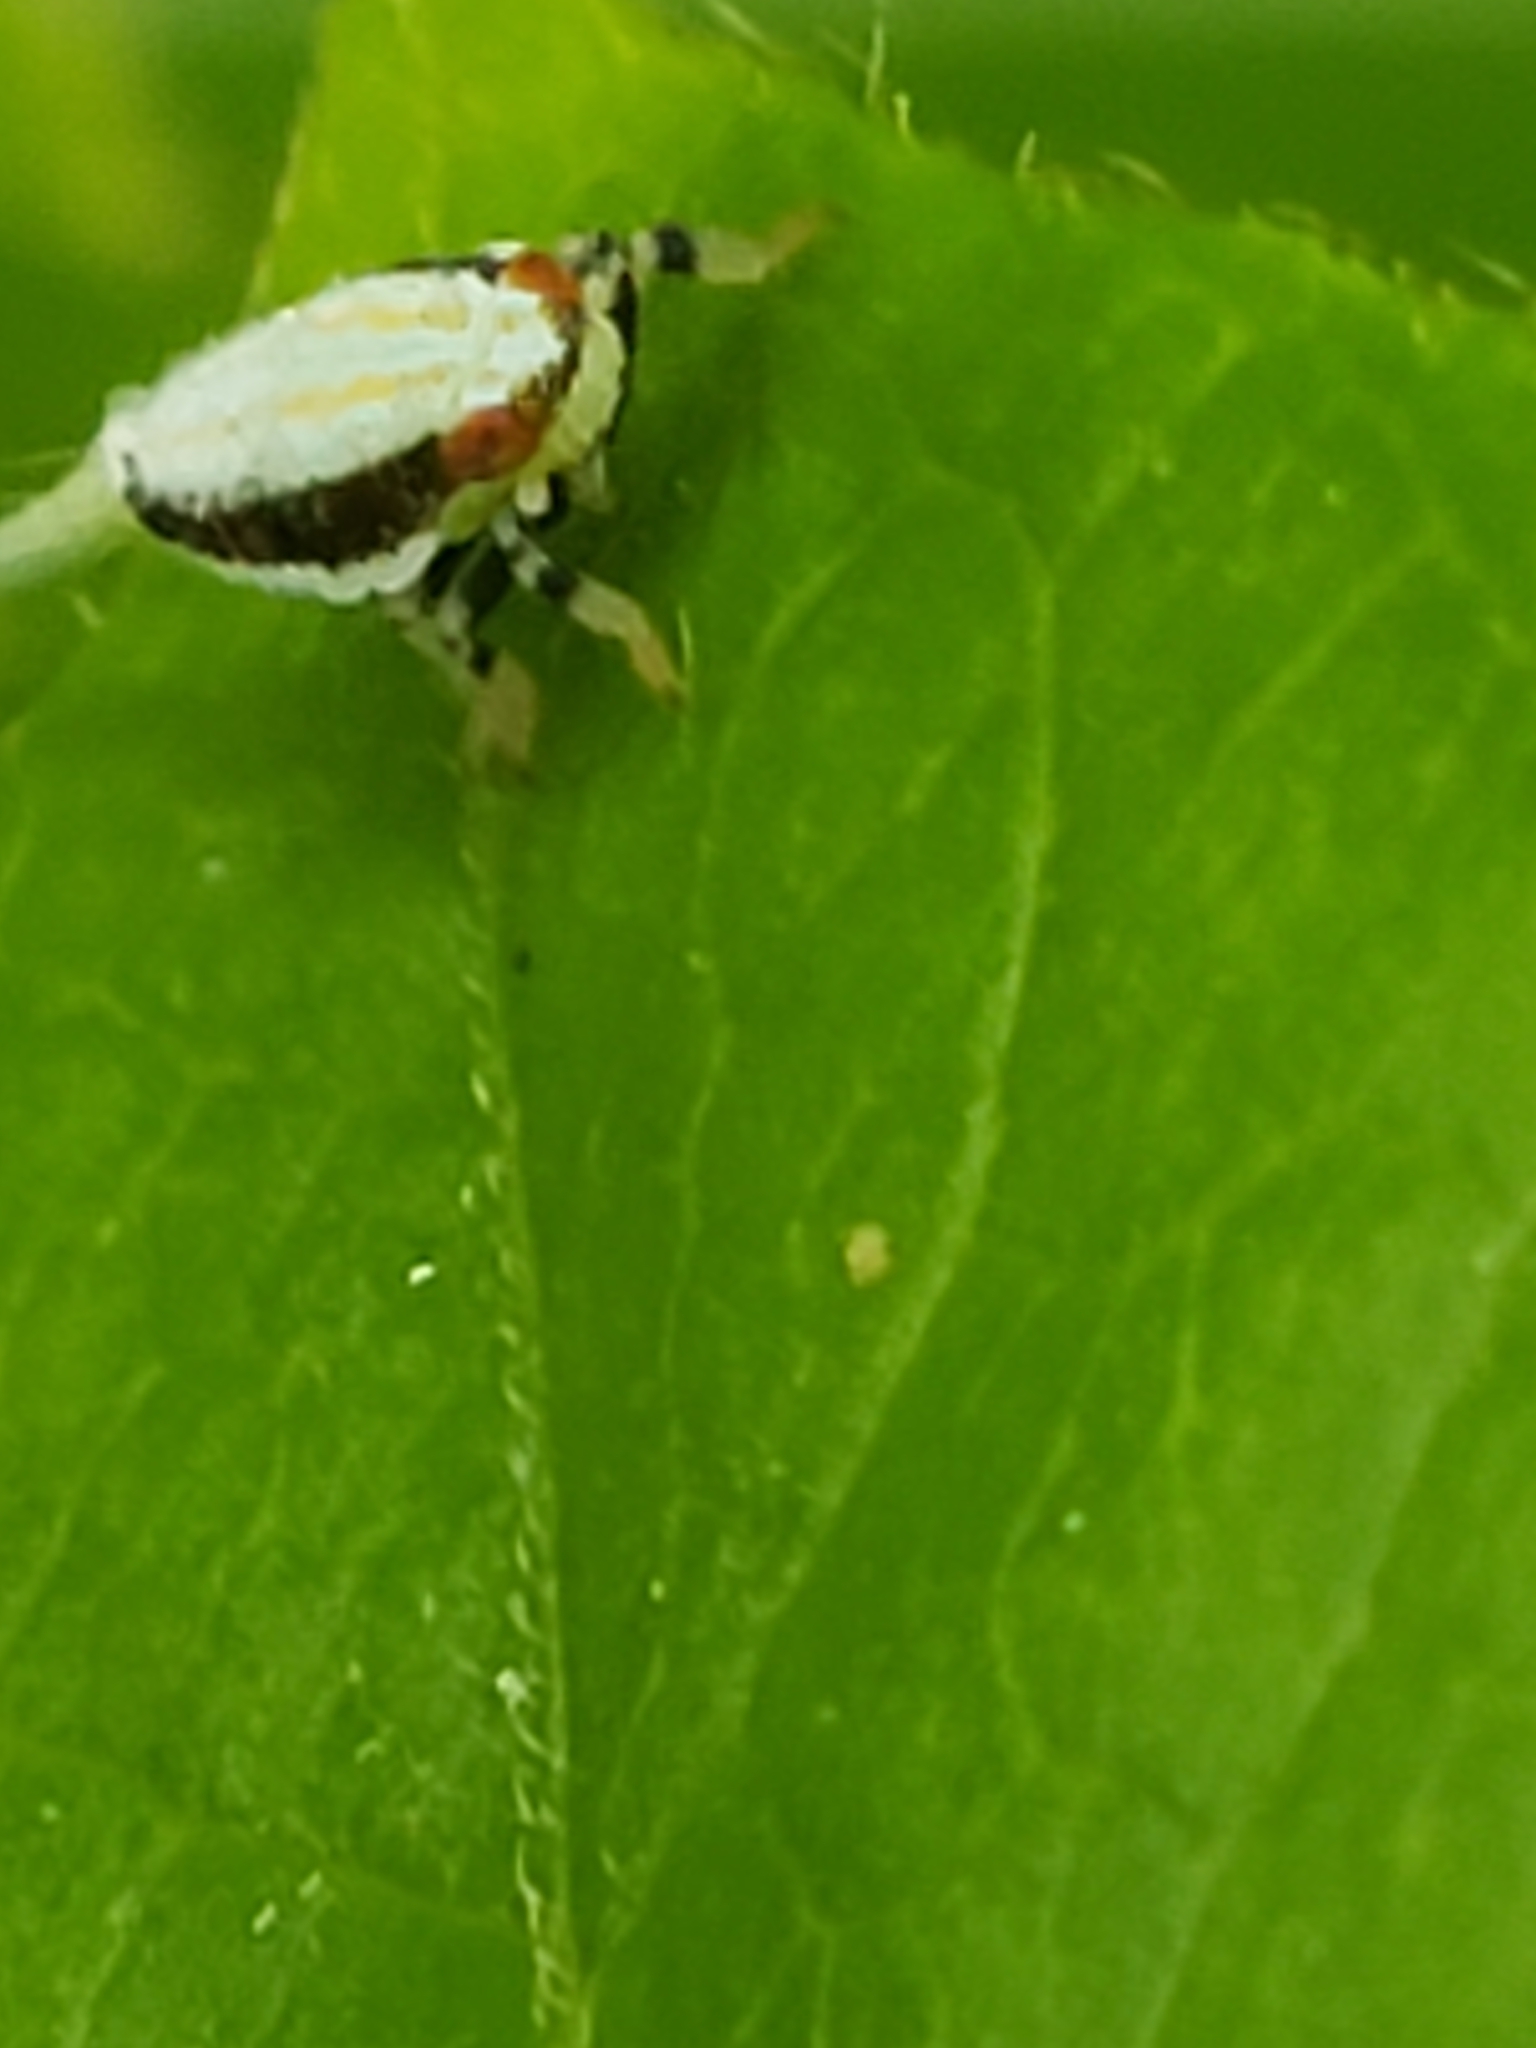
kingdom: Animalia
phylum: Arthropoda
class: Insecta
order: Hemiptera
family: Issidae
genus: Thionia
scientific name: Thionia bullata
